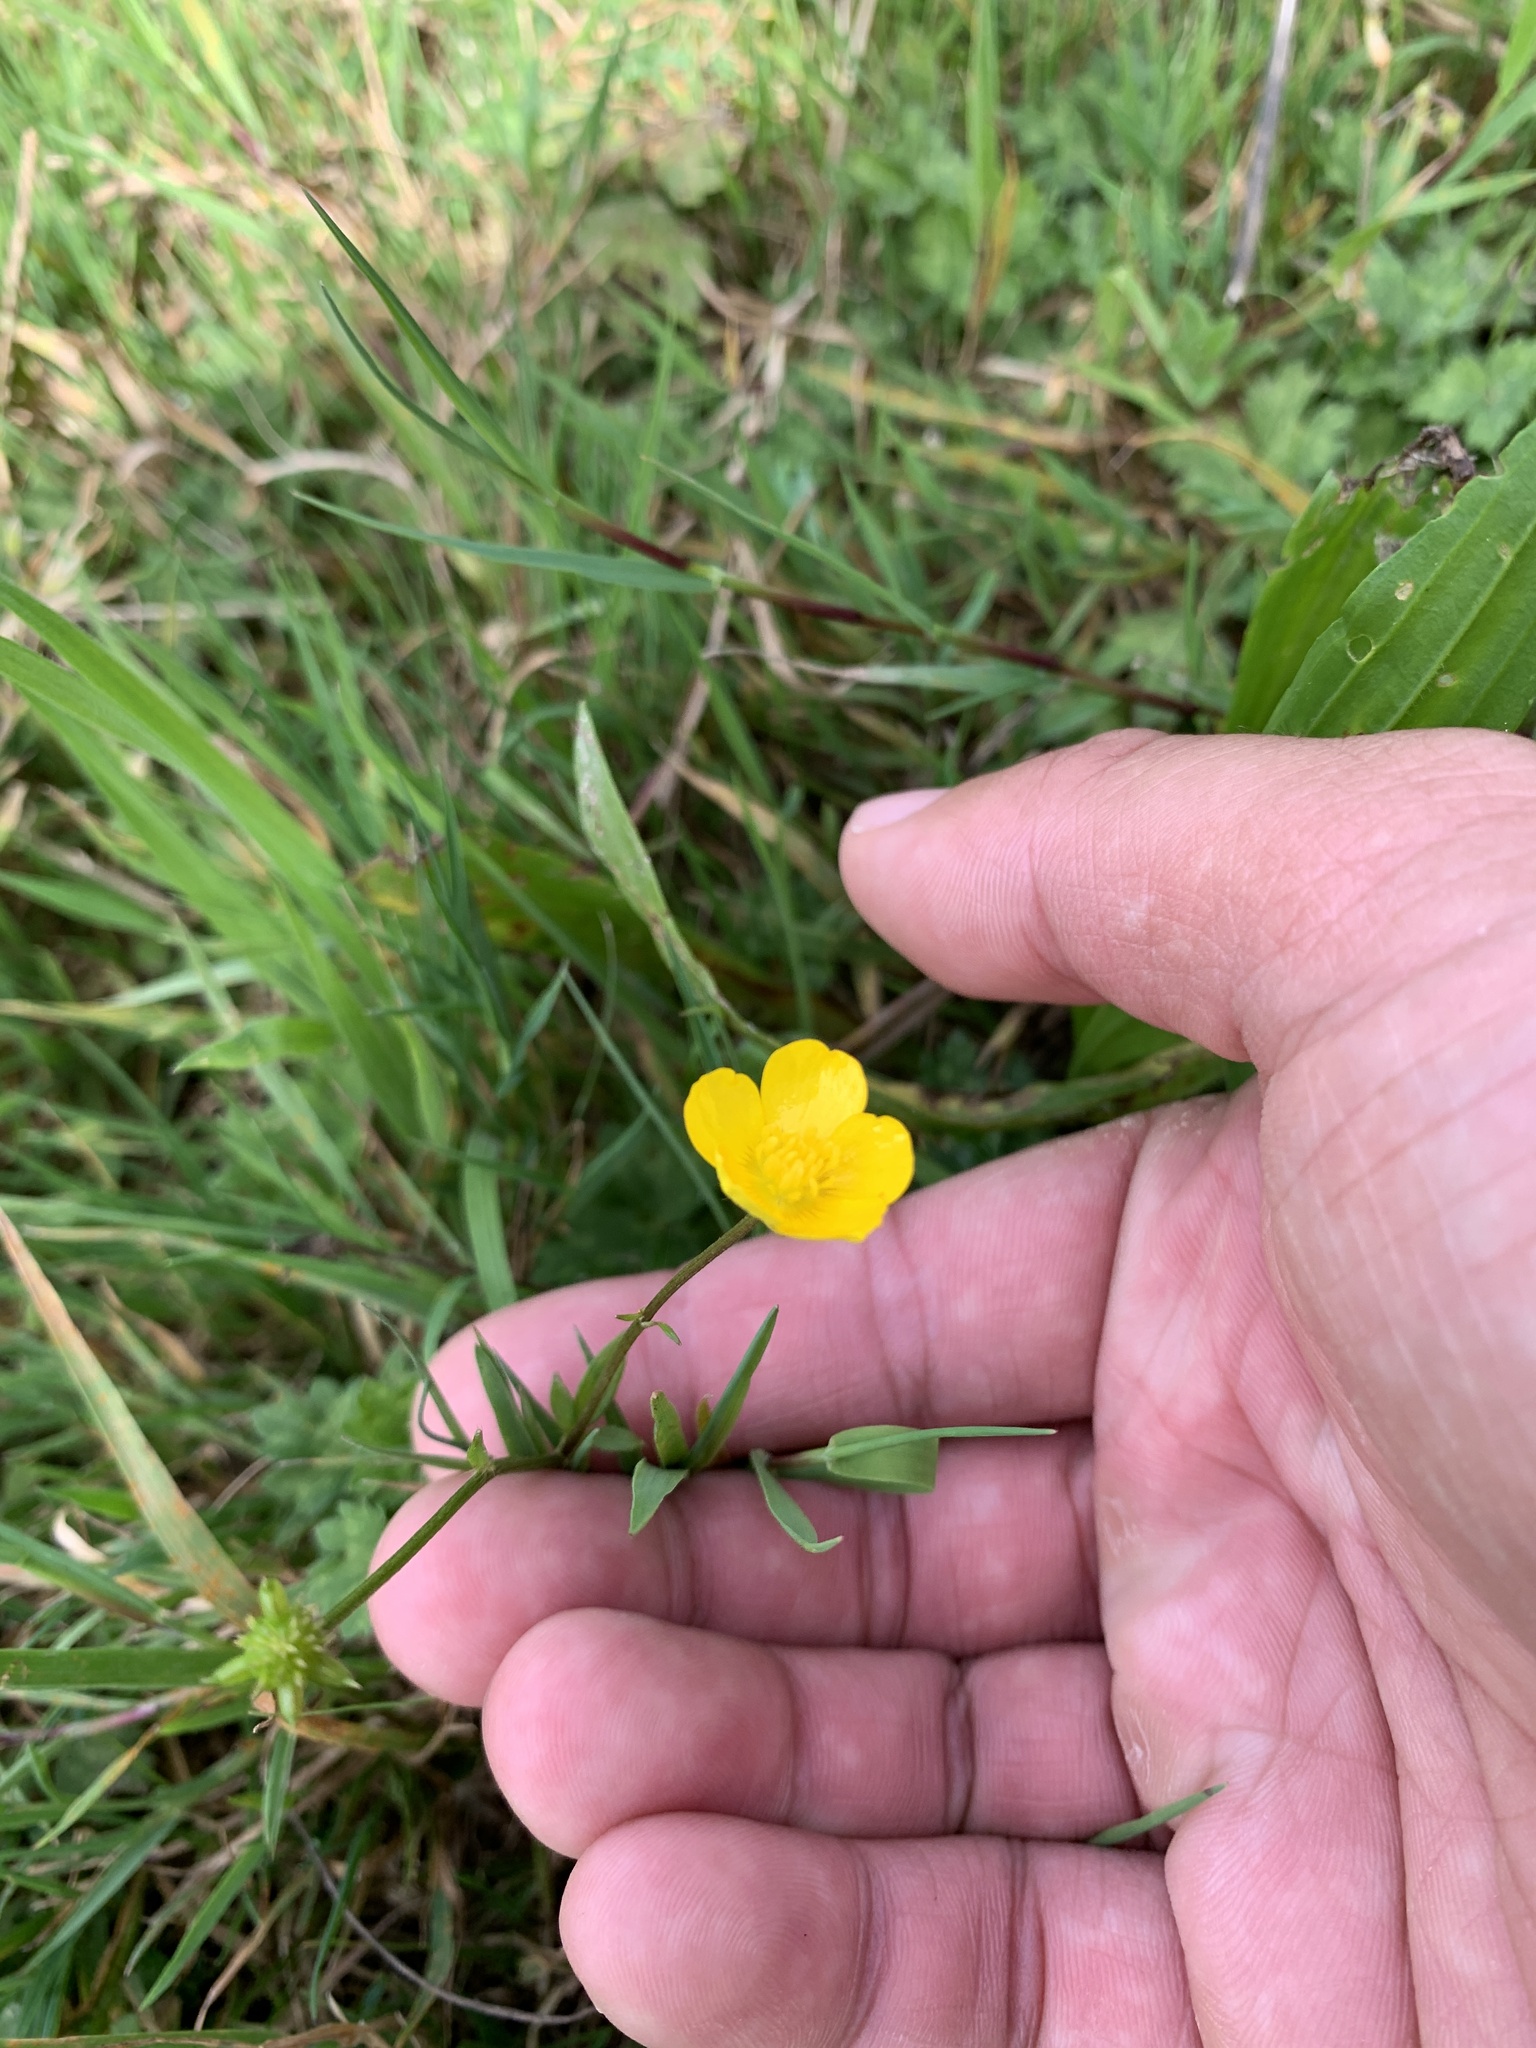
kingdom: Plantae
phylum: Tracheophyta
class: Magnoliopsida
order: Ranunculales
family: Ranunculaceae
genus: Ranunculus
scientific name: Ranunculus acris
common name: Meadow buttercup
